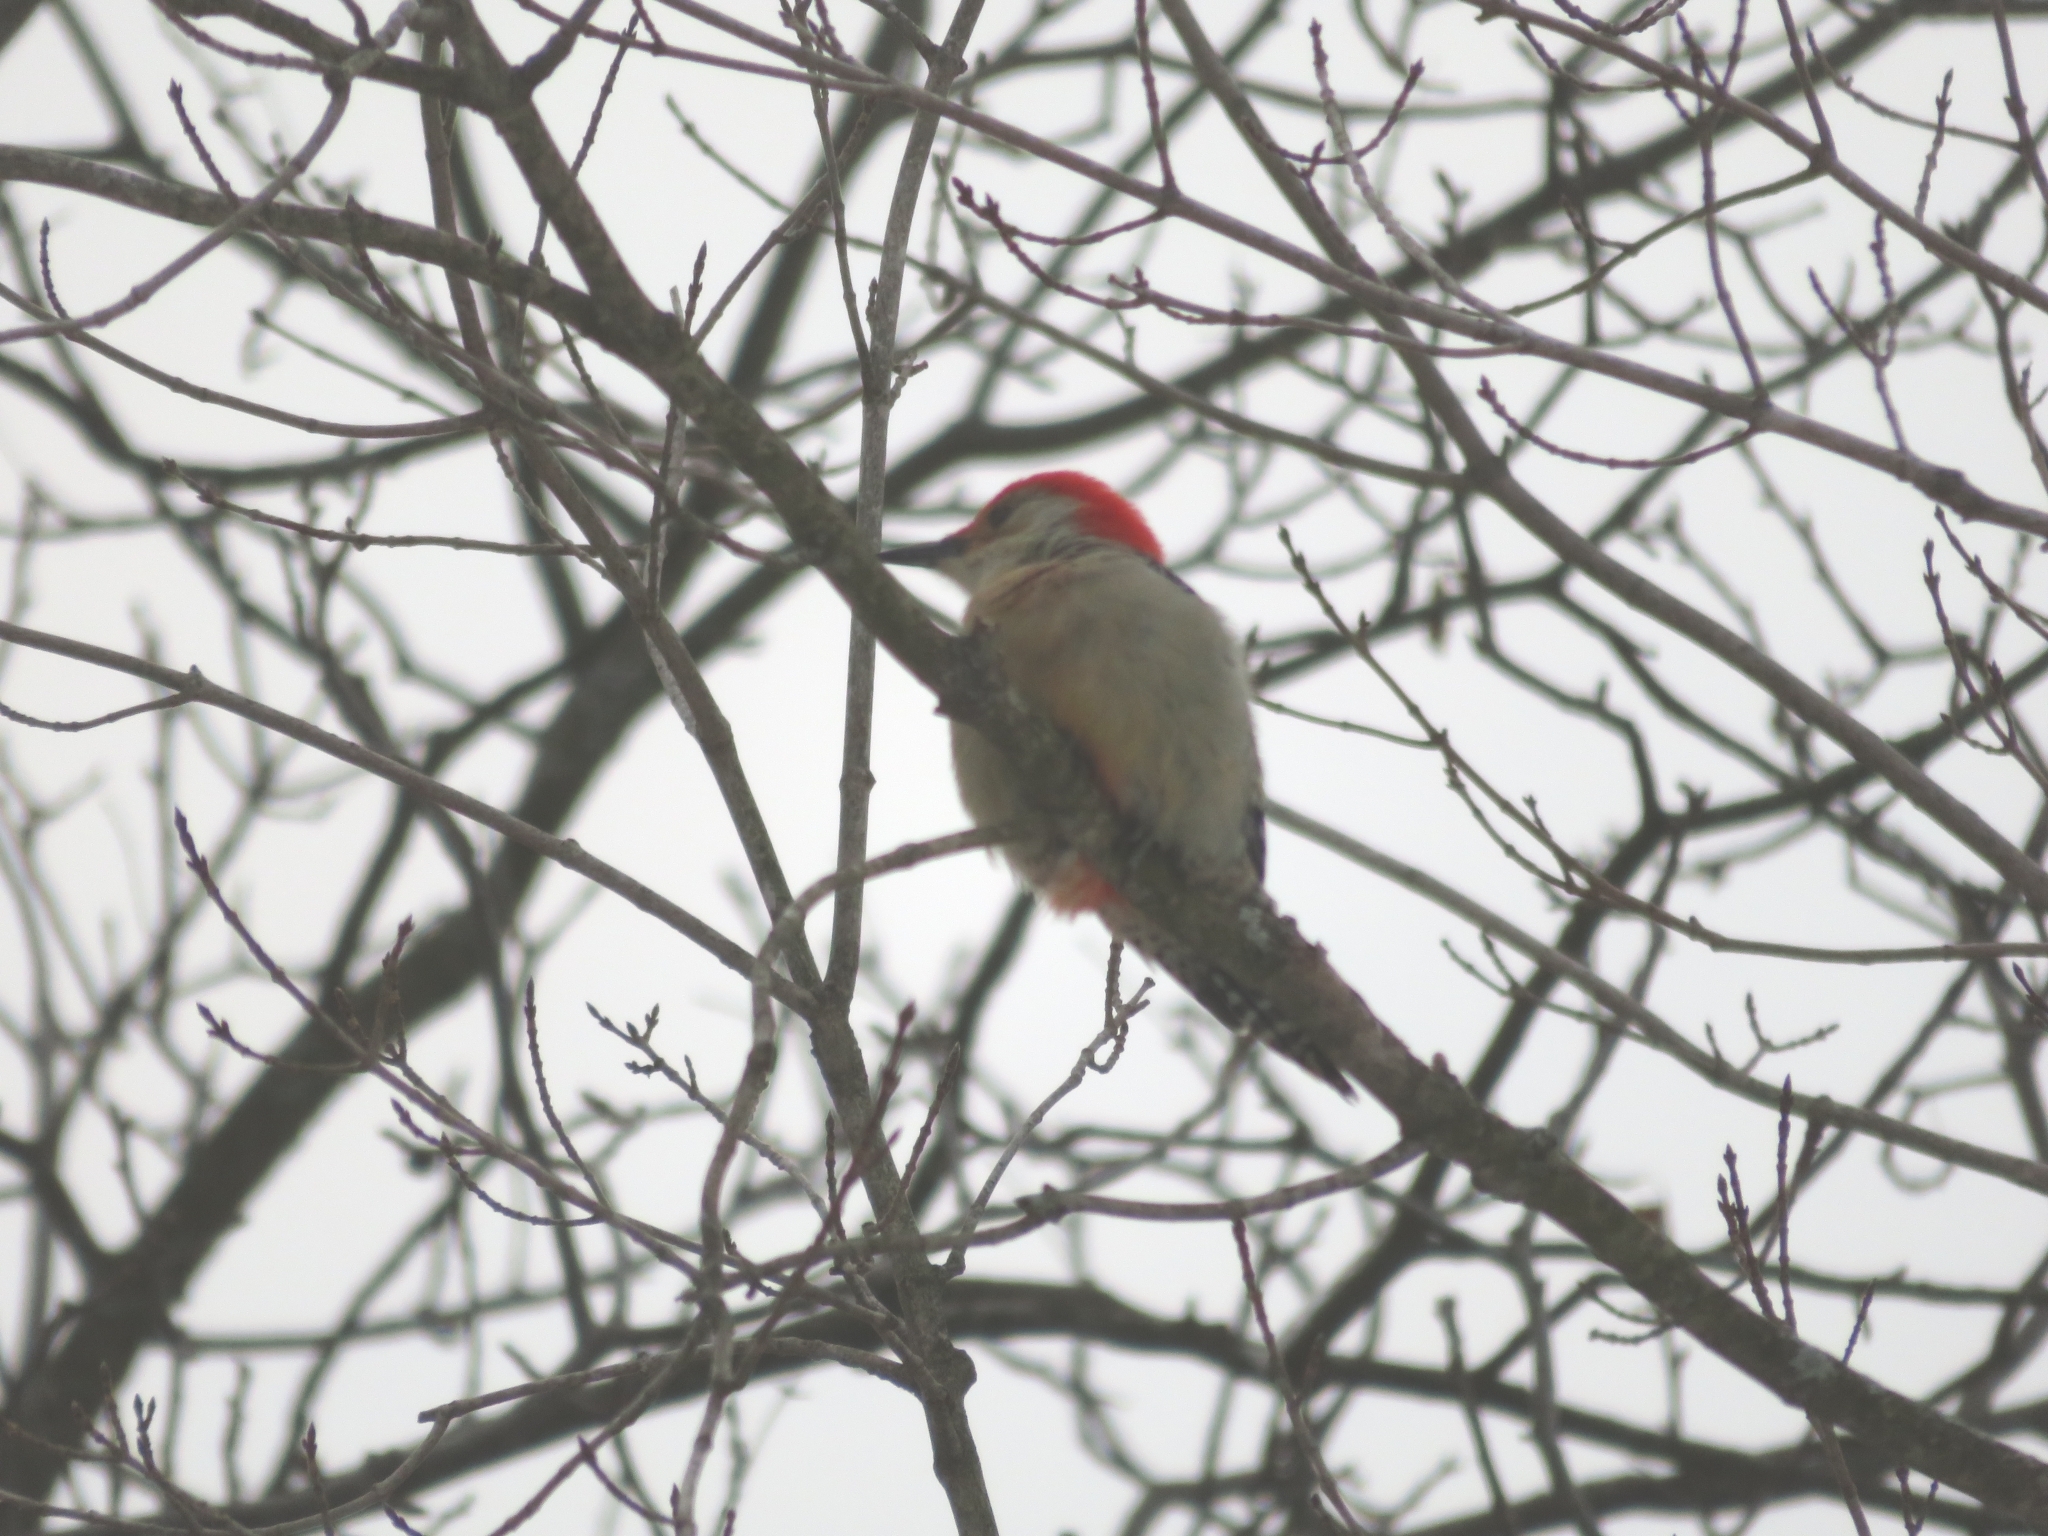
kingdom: Animalia
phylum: Chordata
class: Aves
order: Piciformes
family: Picidae
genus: Melanerpes
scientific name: Melanerpes carolinus
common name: Red-bellied woodpecker
